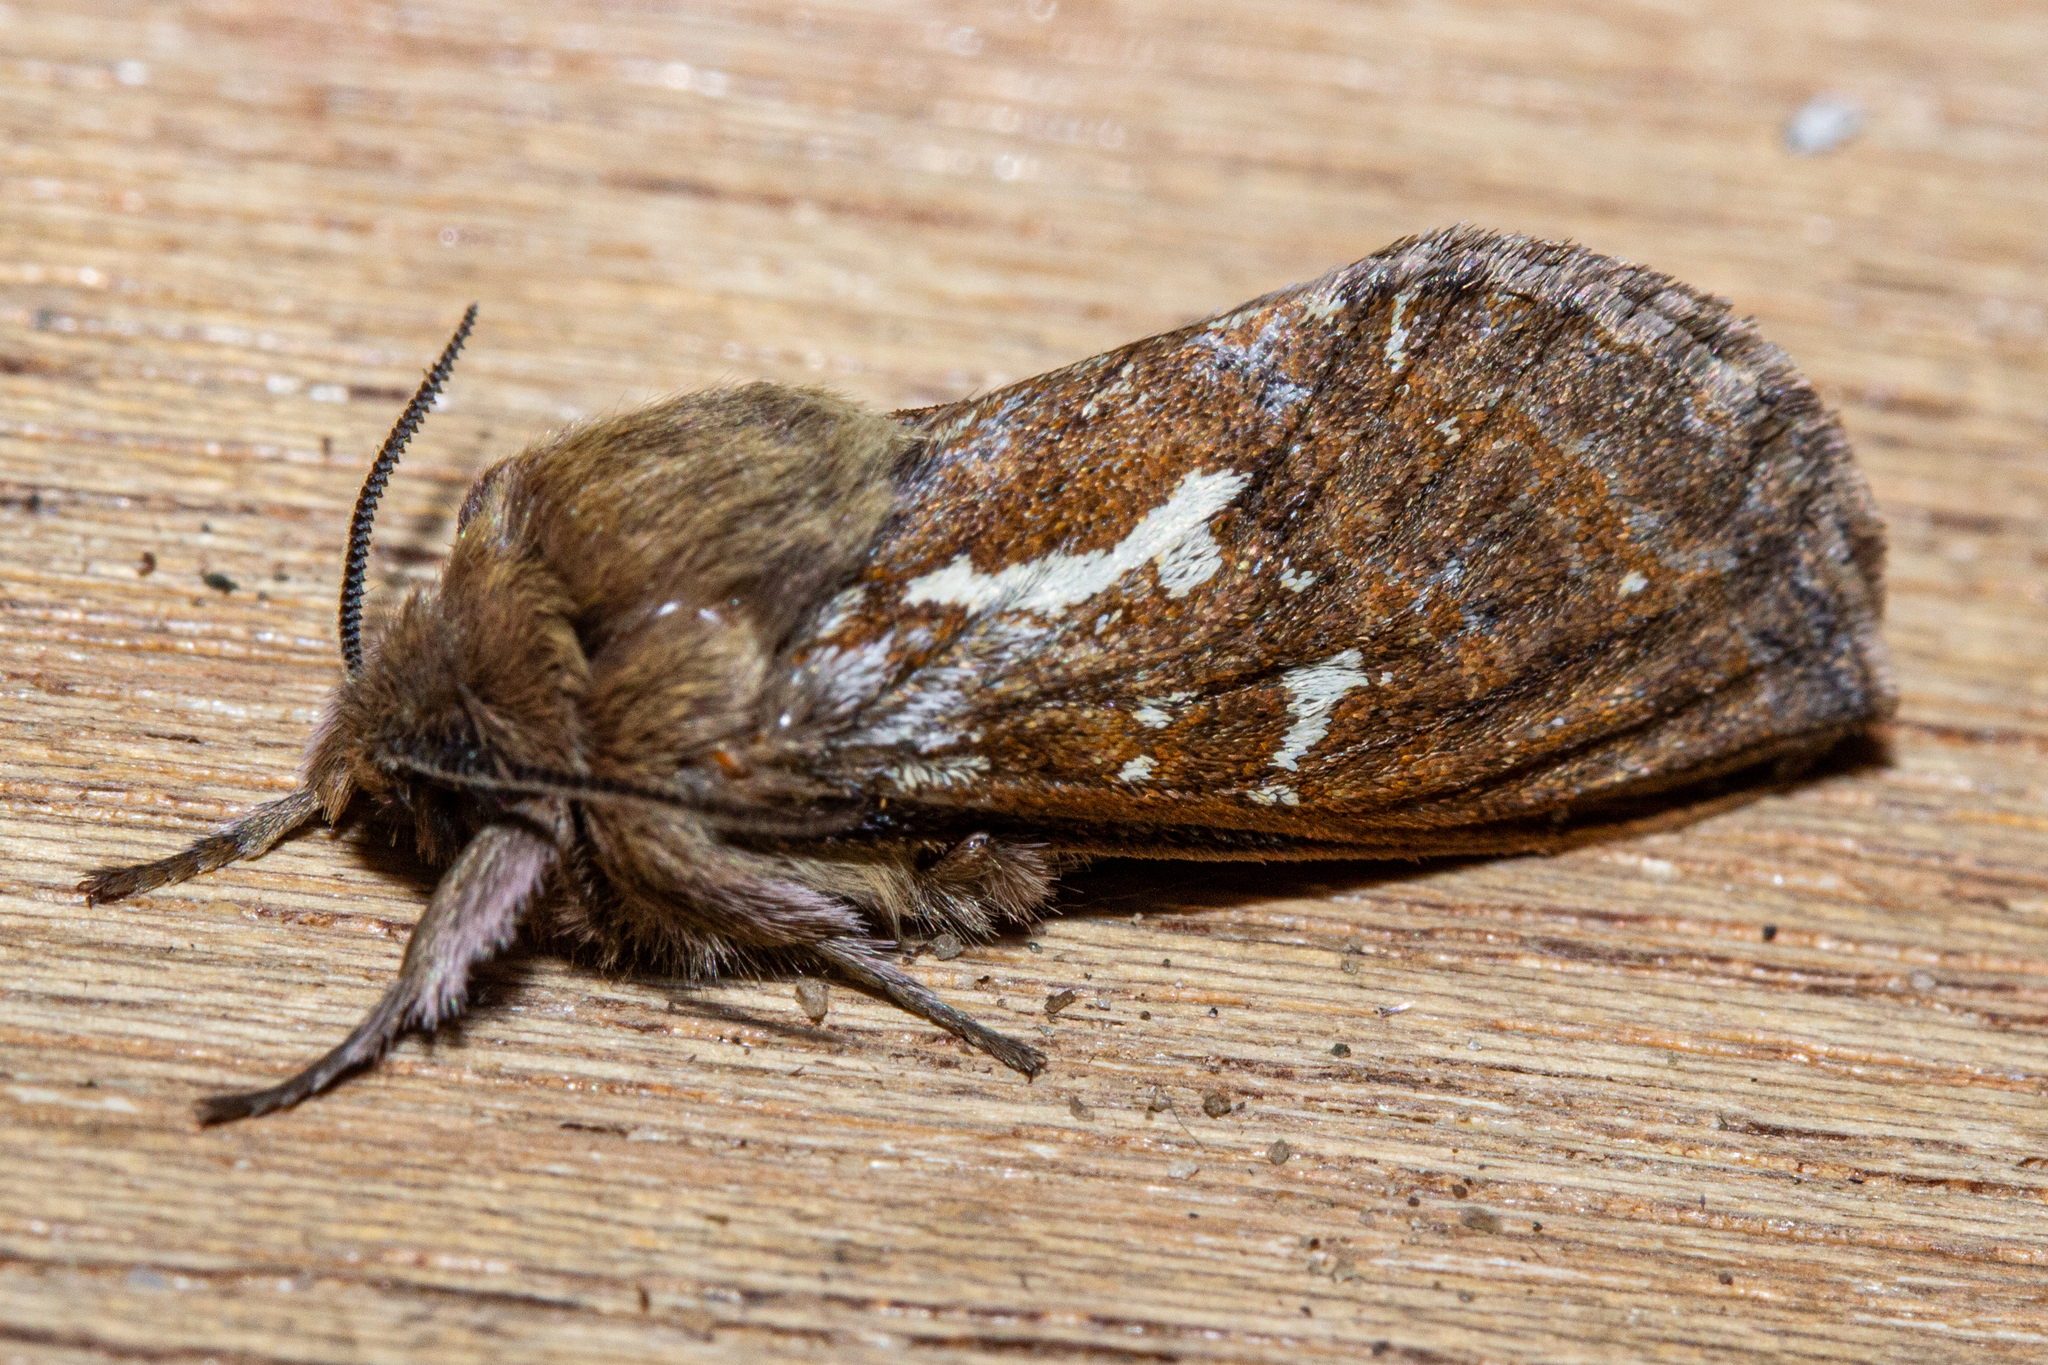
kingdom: Animalia
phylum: Arthropoda
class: Insecta
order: Lepidoptera
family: Hepialidae
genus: Dioxycanus
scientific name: Dioxycanus fusca
